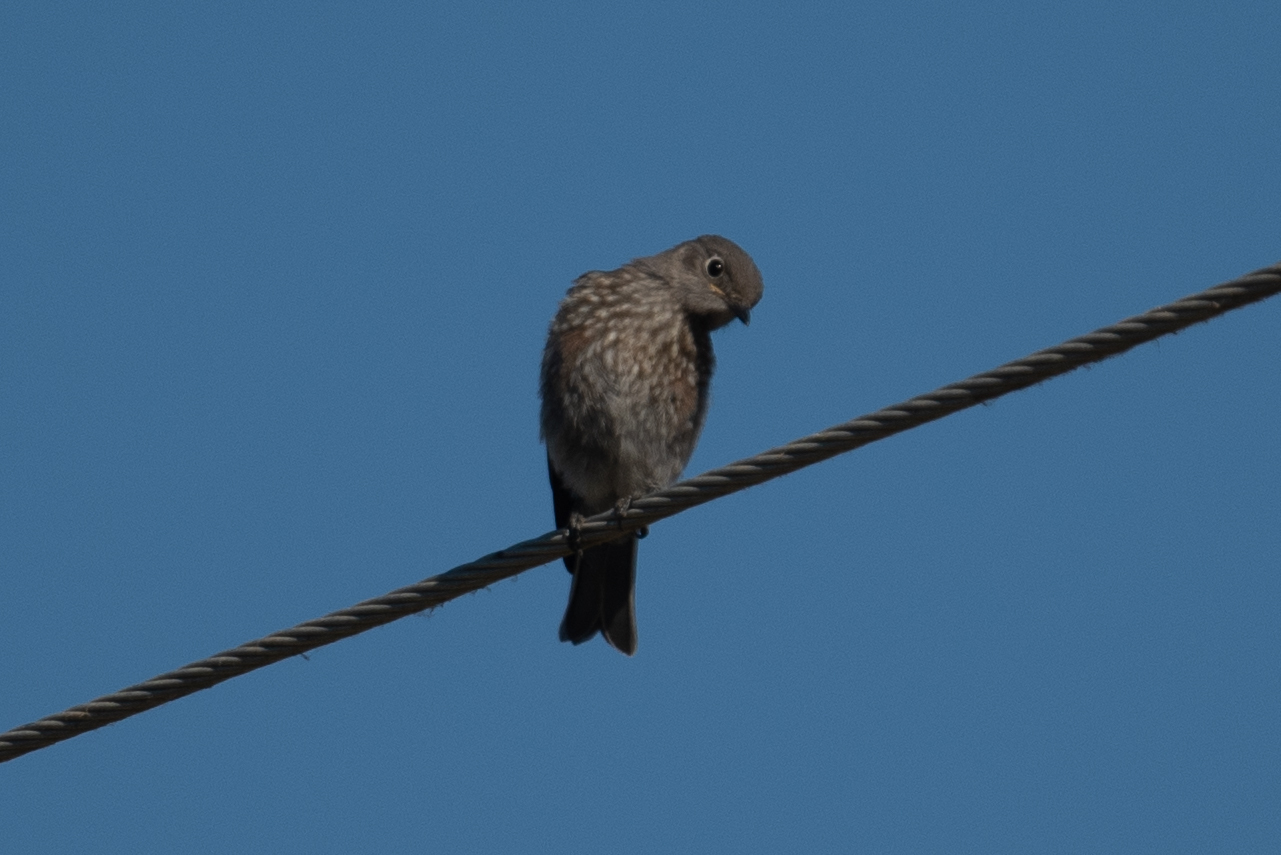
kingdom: Animalia
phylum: Chordata
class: Aves
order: Passeriformes
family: Turdidae
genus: Sialia
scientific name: Sialia mexicana
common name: Western bluebird
